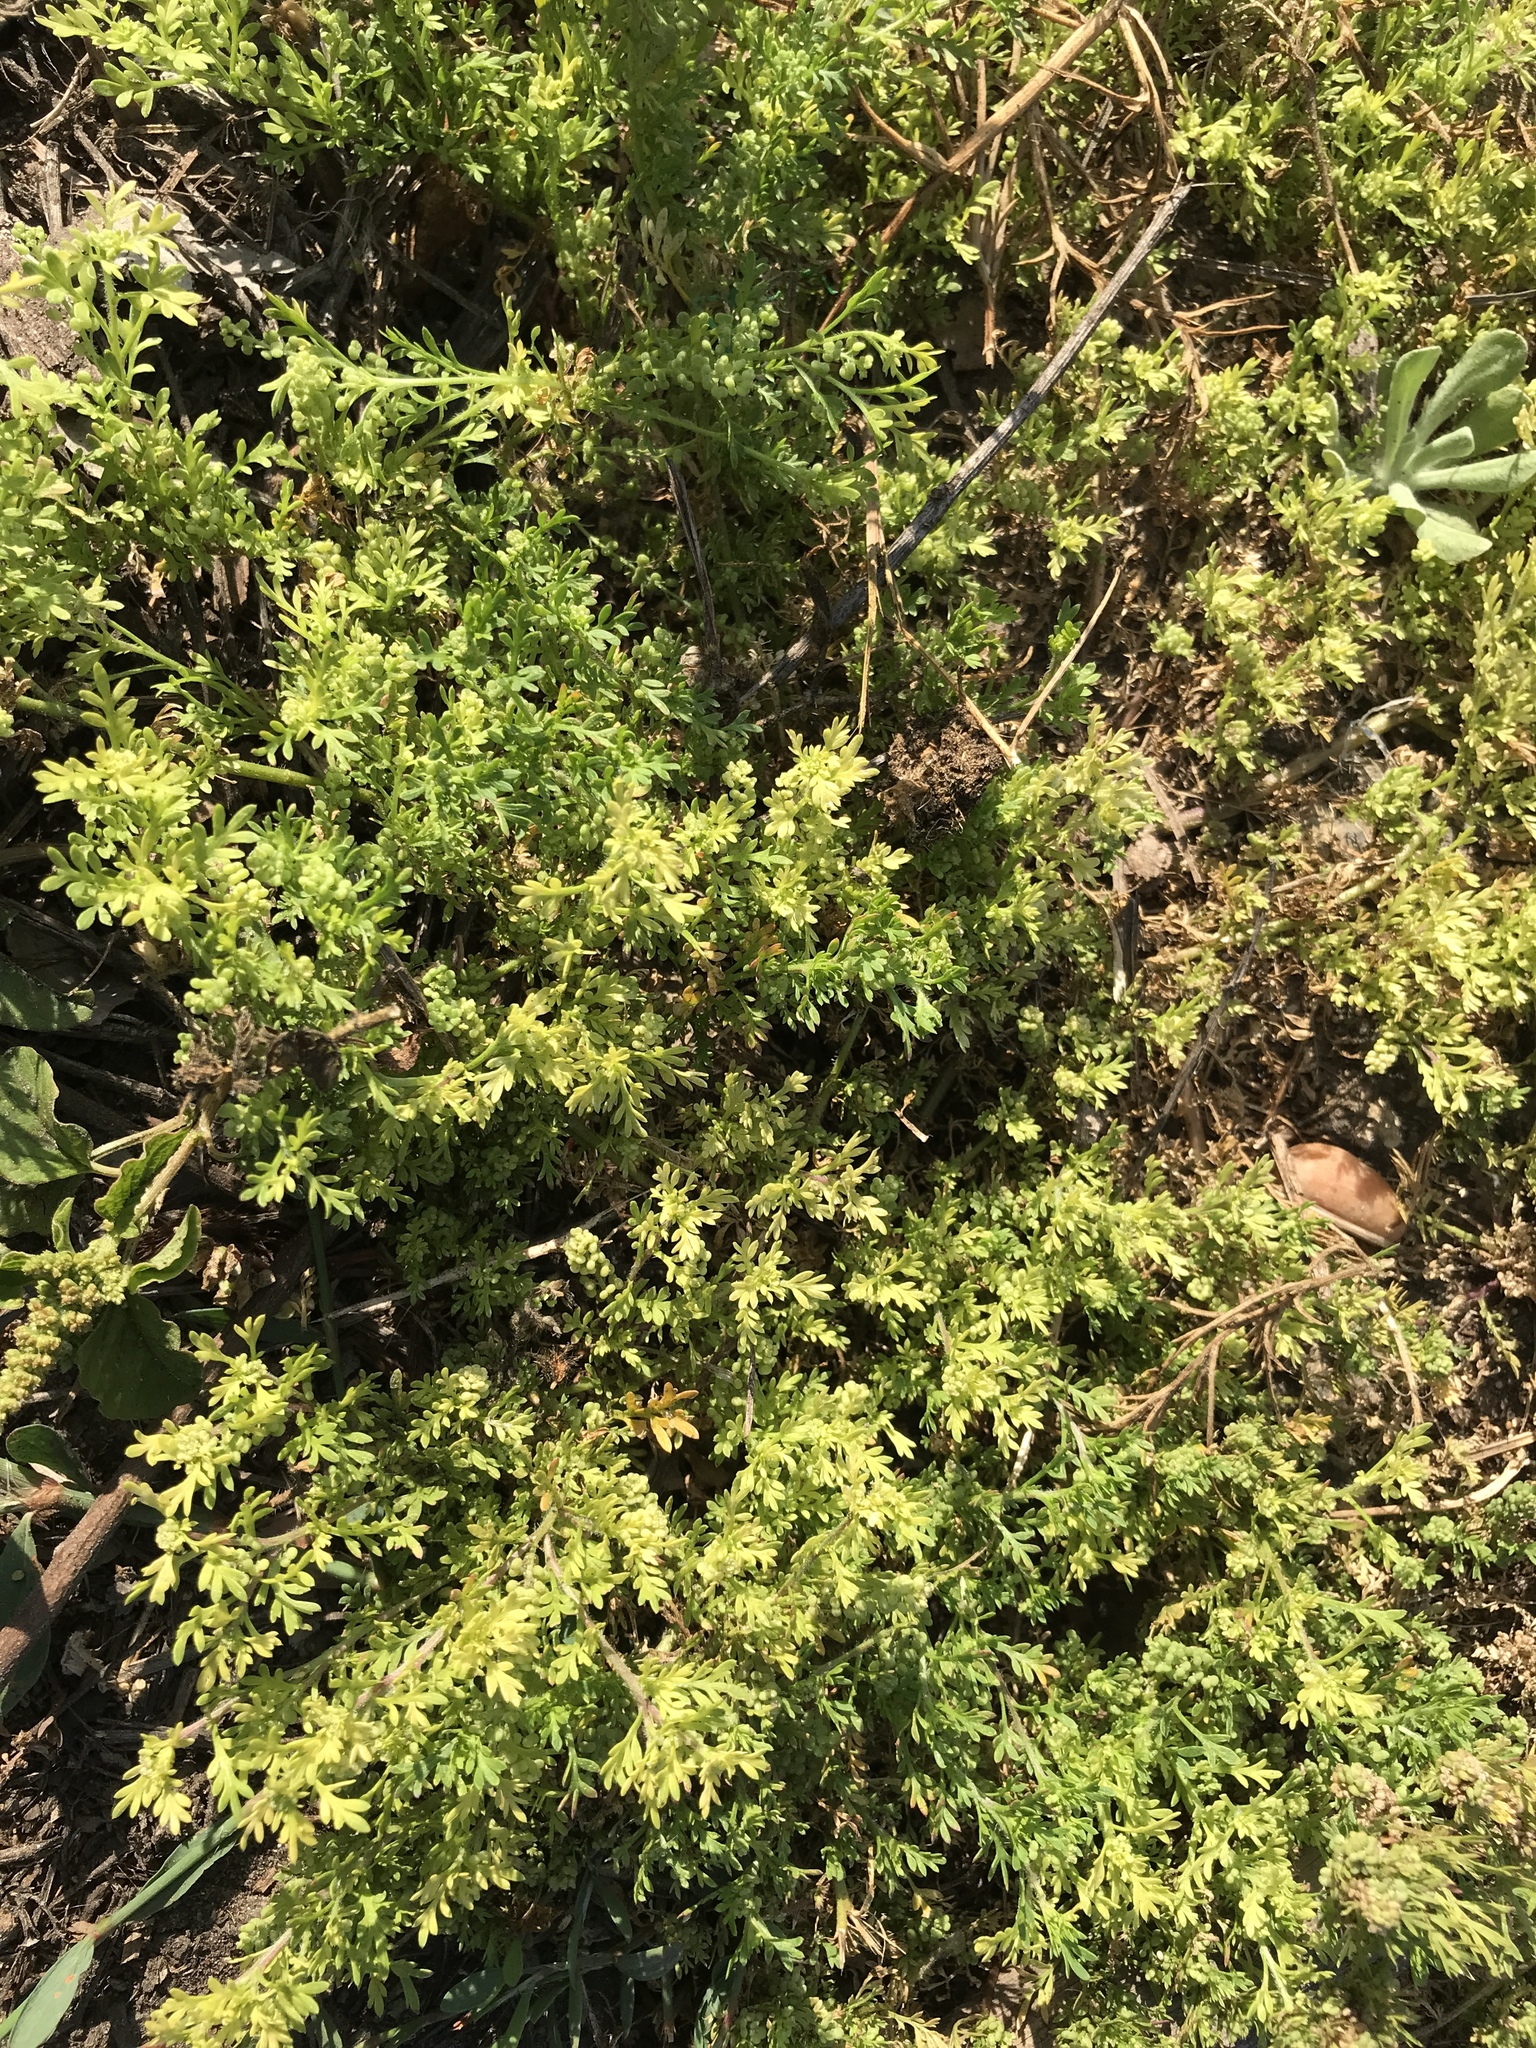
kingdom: Plantae
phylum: Tracheophyta
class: Magnoliopsida
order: Brassicales
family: Brassicaceae
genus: Lepidium
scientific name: Lepidium didymum
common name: Lesser swinecress
